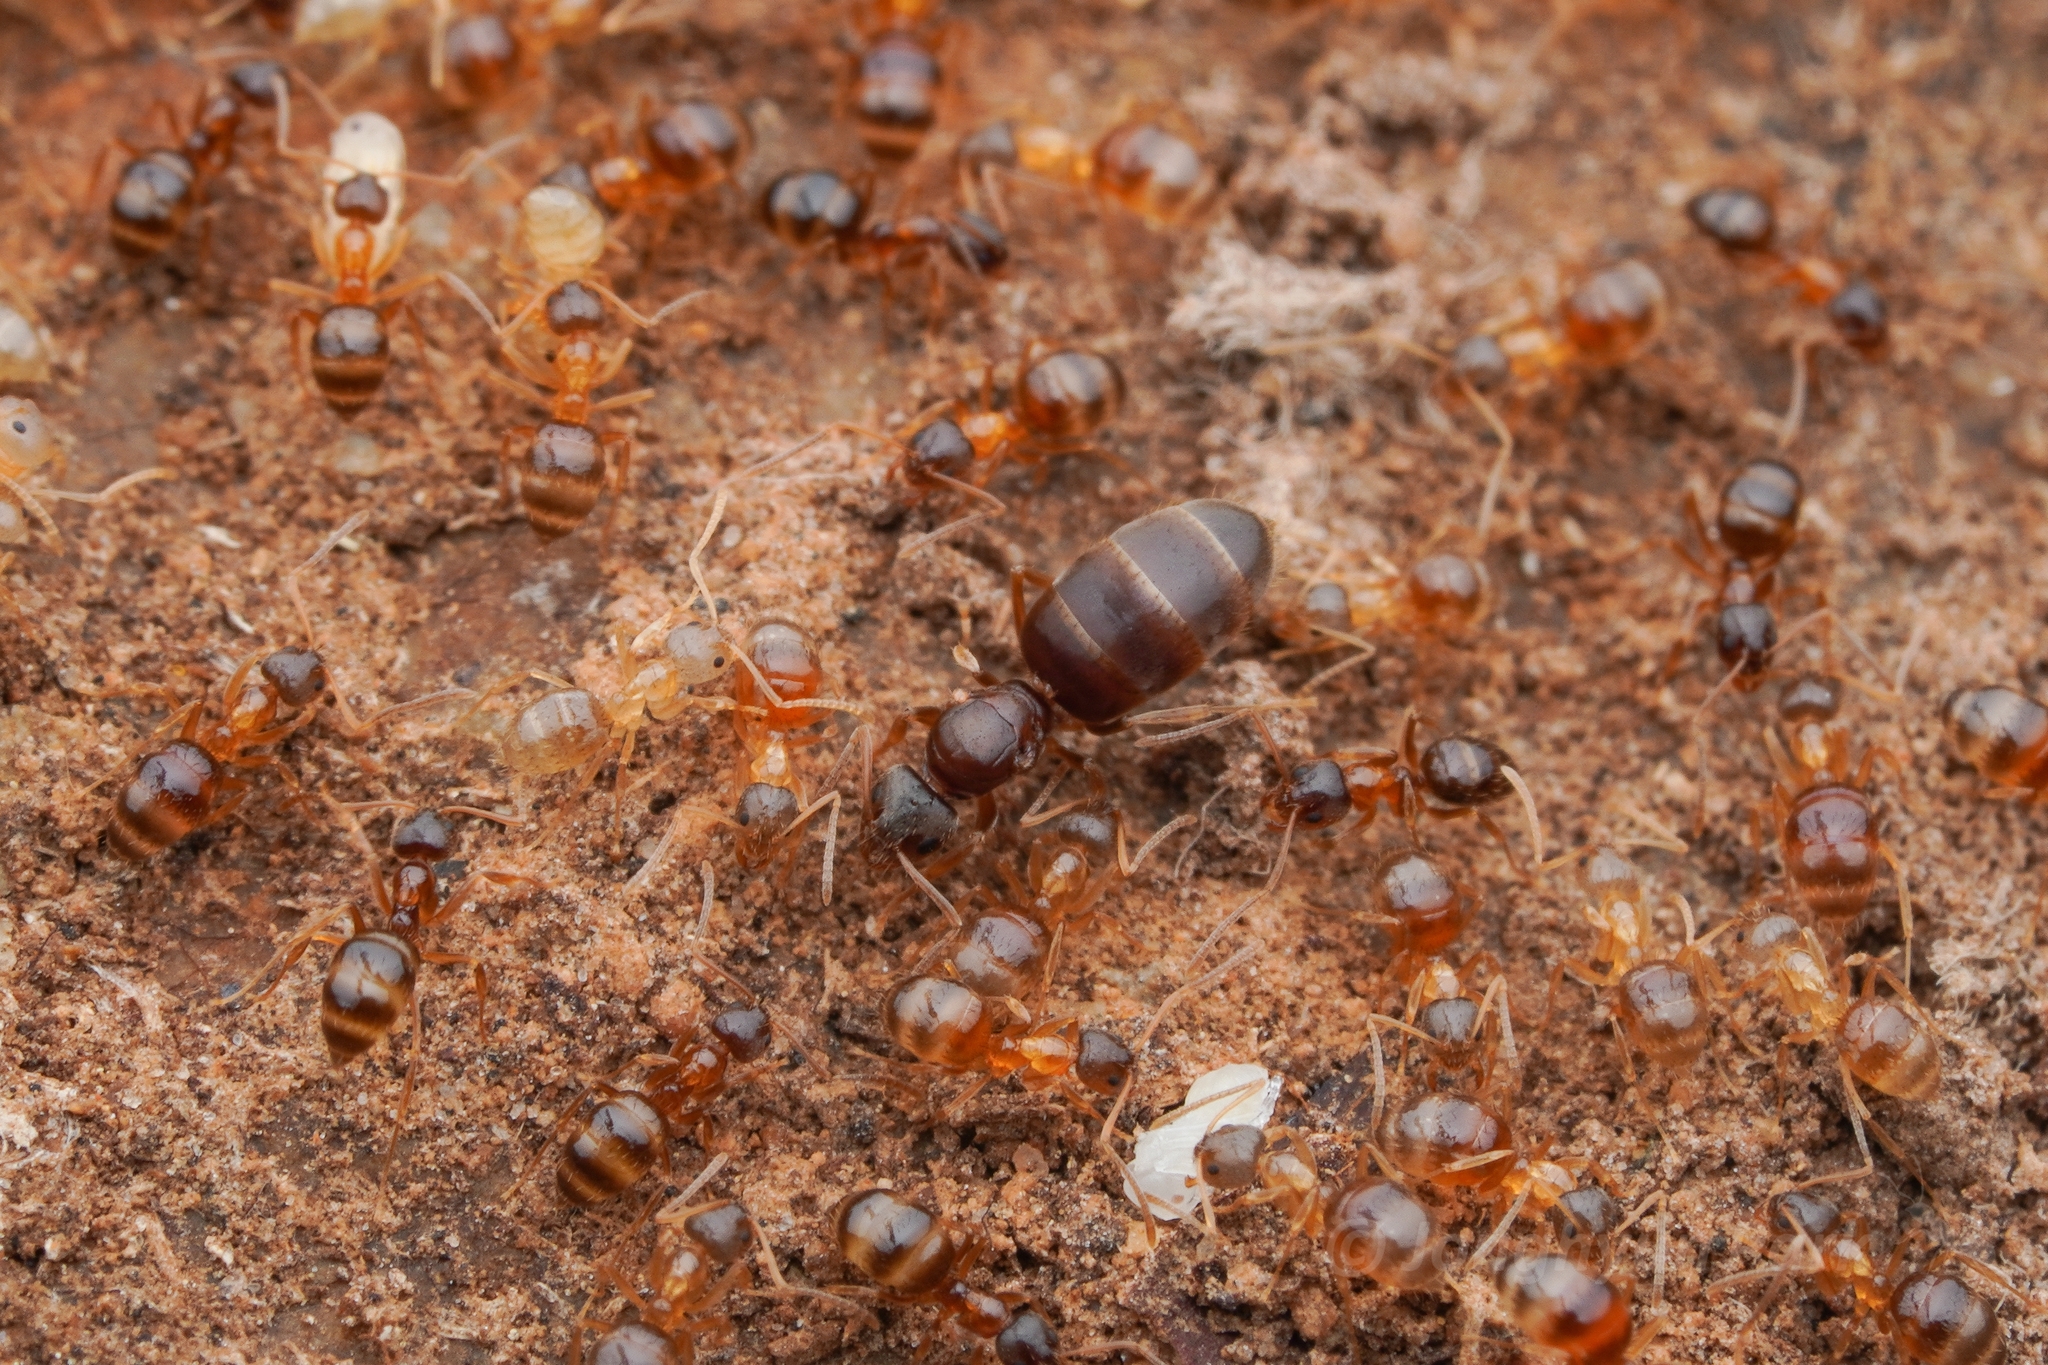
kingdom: Animalia
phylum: Arthropoda
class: Insecta
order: Hymenoptera
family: Formicidae
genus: Paratrechina
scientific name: Paratrechina flavipes
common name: Eastern asian formicine ant
